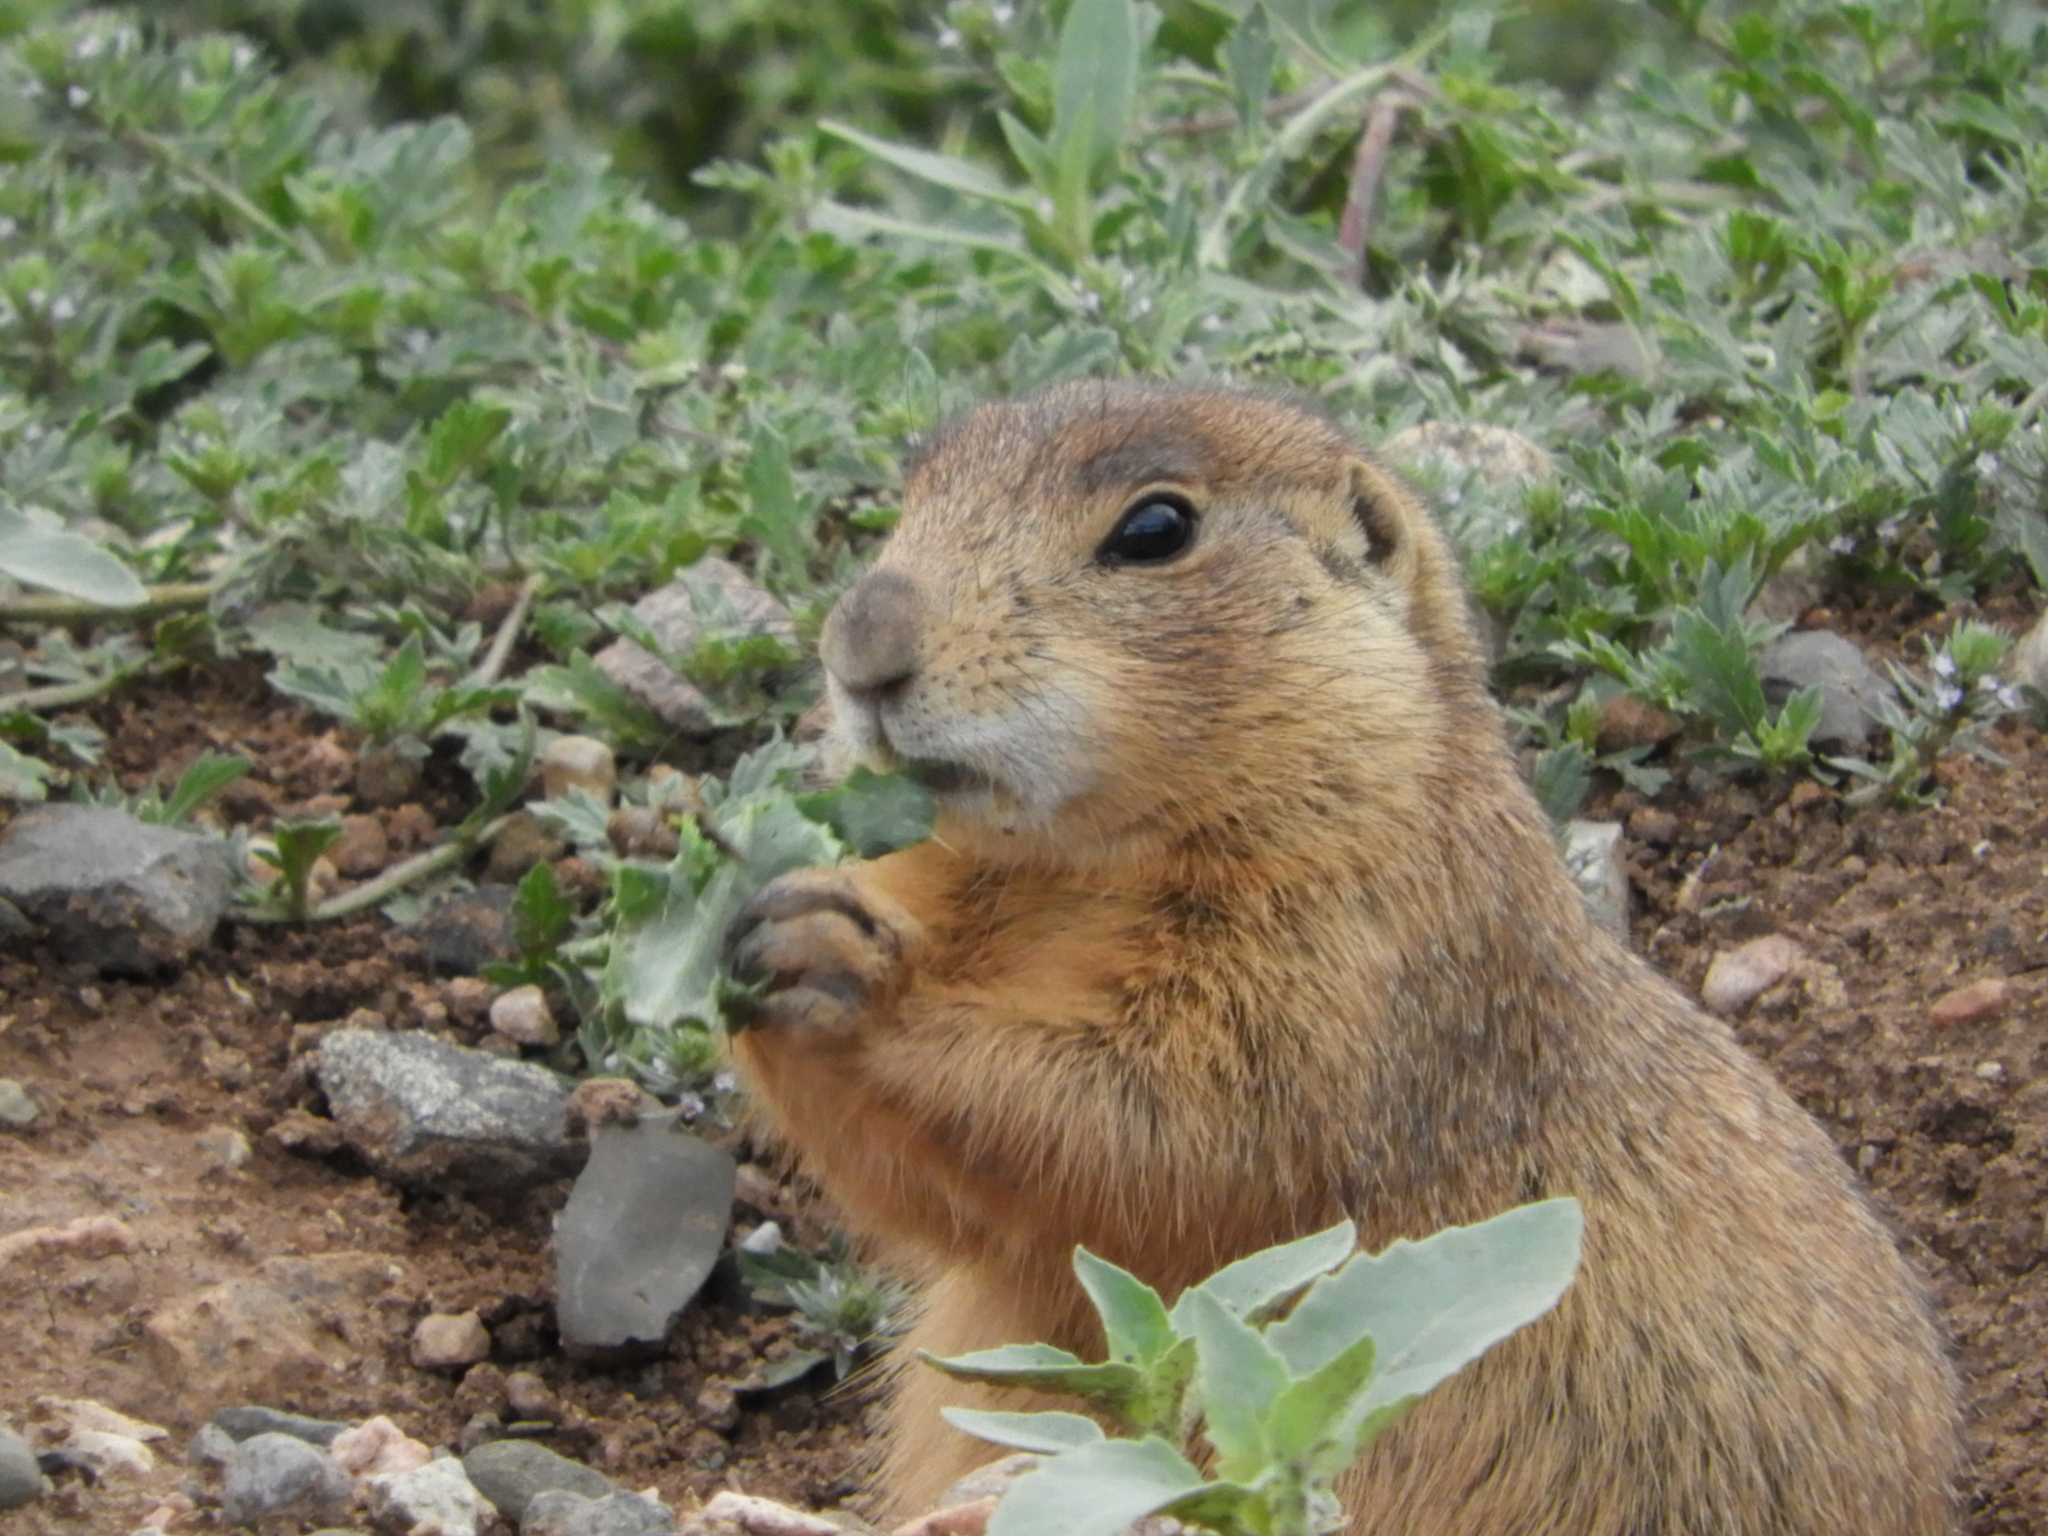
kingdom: Animalia
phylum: Chordata
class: Mammalia
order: Rodentia
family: Sciuridae
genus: Cynomys
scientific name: Cynomys gunnisoni
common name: Gunnison's prairie dog
